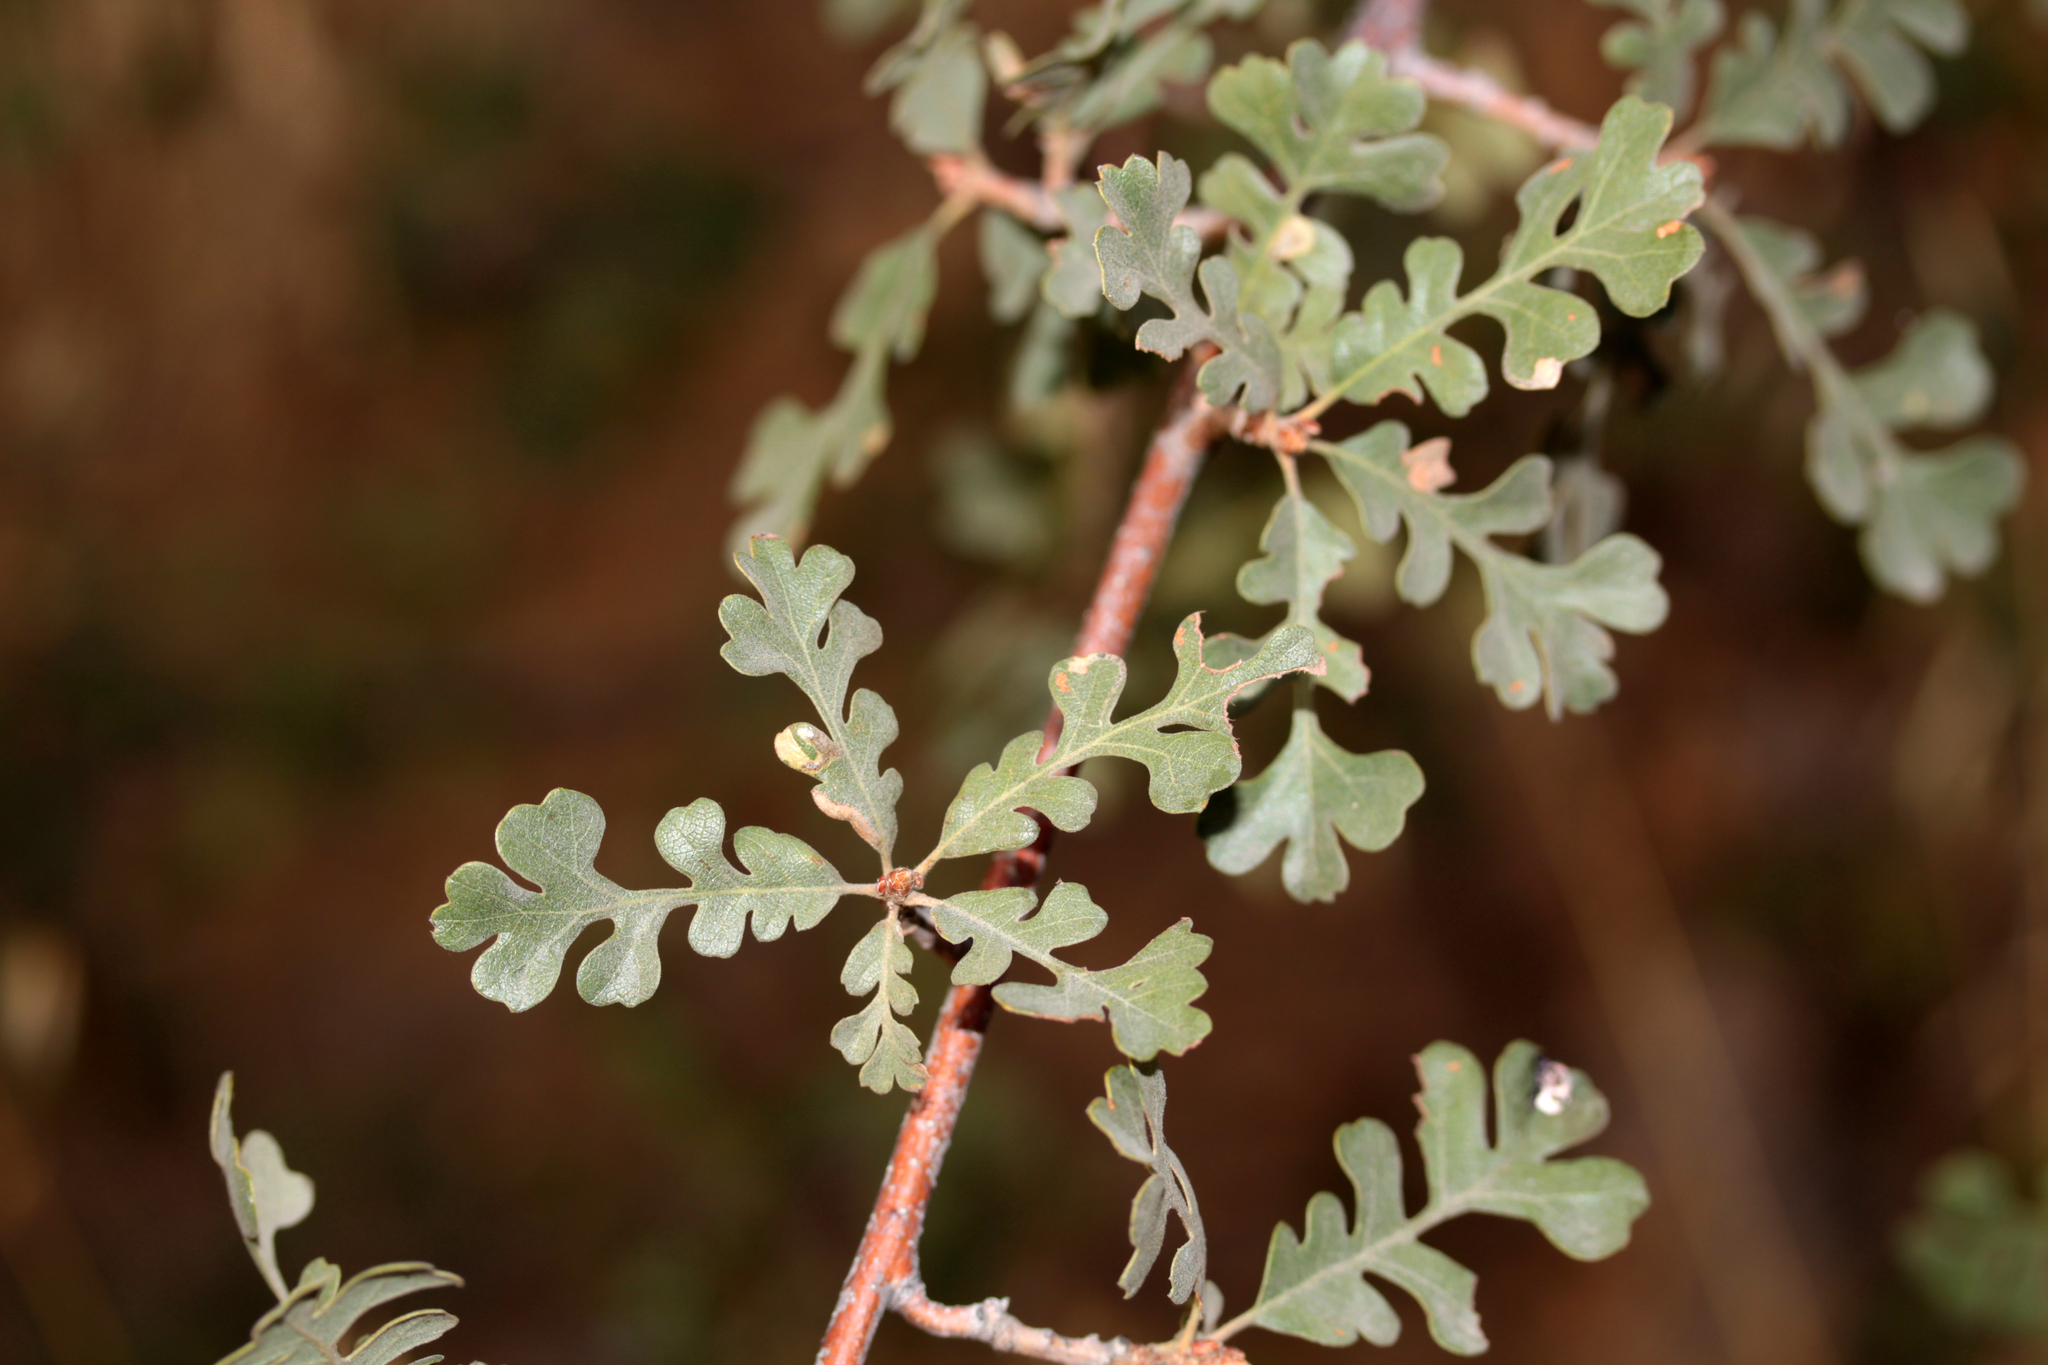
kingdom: Plantae
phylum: Tracheophyta
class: Magnoliopsida
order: Fagales
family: Fagaceae
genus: Quercus
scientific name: Quercus lobata
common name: Valley oak
